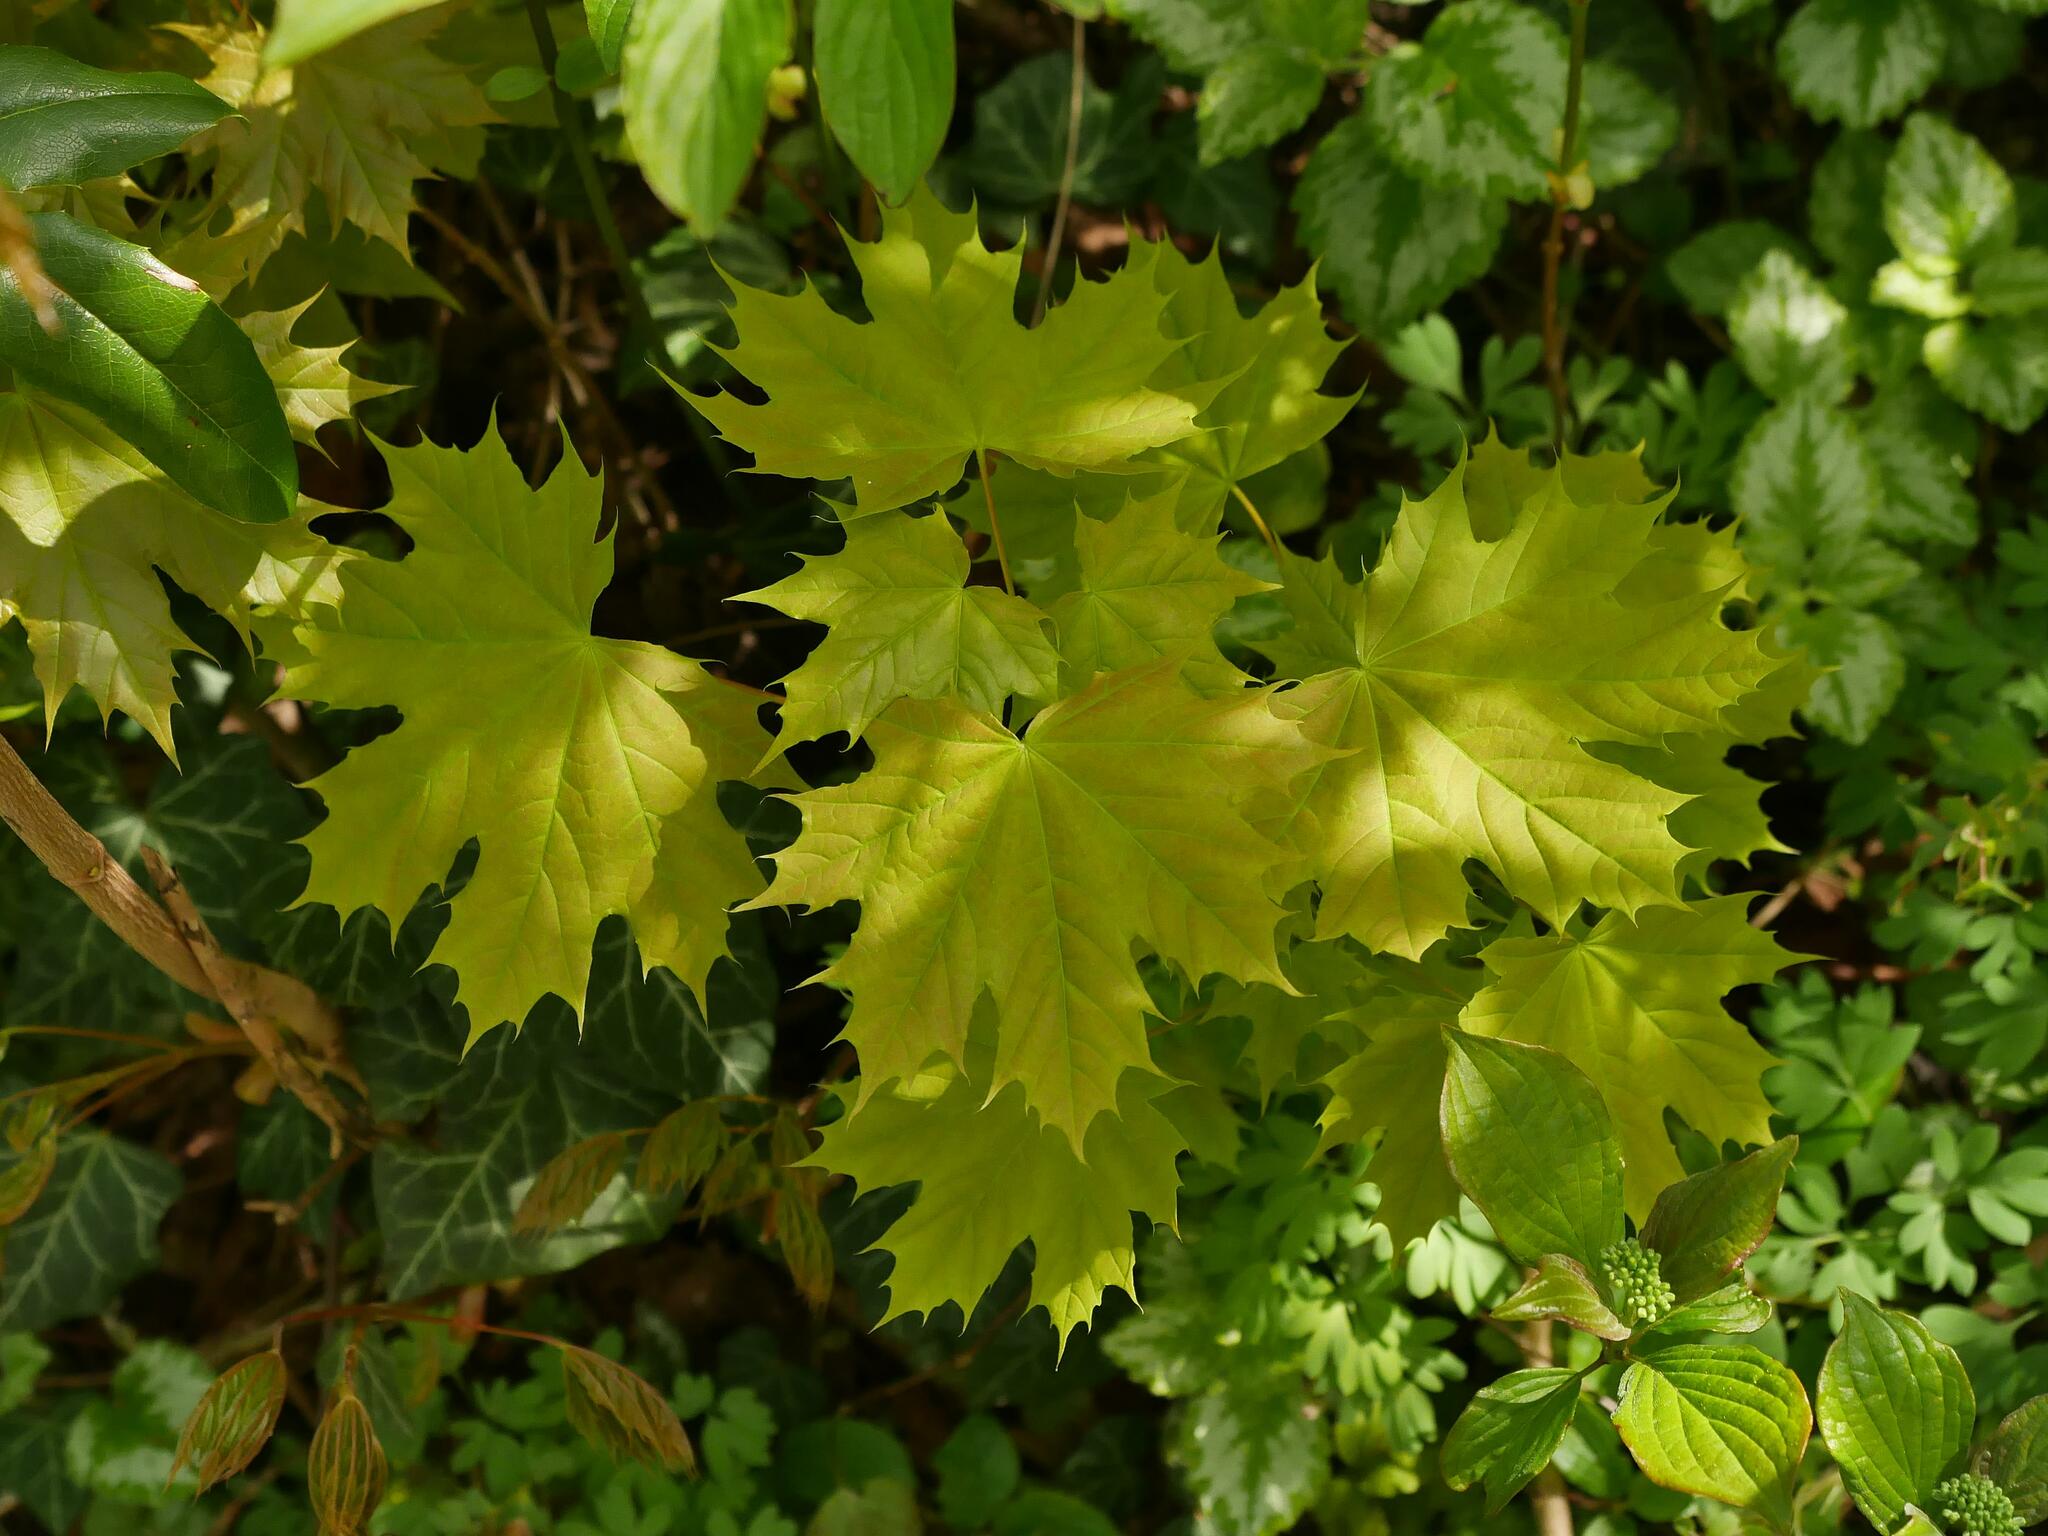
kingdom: Plantae
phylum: Tracheophyta
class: Magnoliopsida
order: Sapindales
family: Sapindaceae
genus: Acer
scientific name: Acer platanoides
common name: Norway maple
